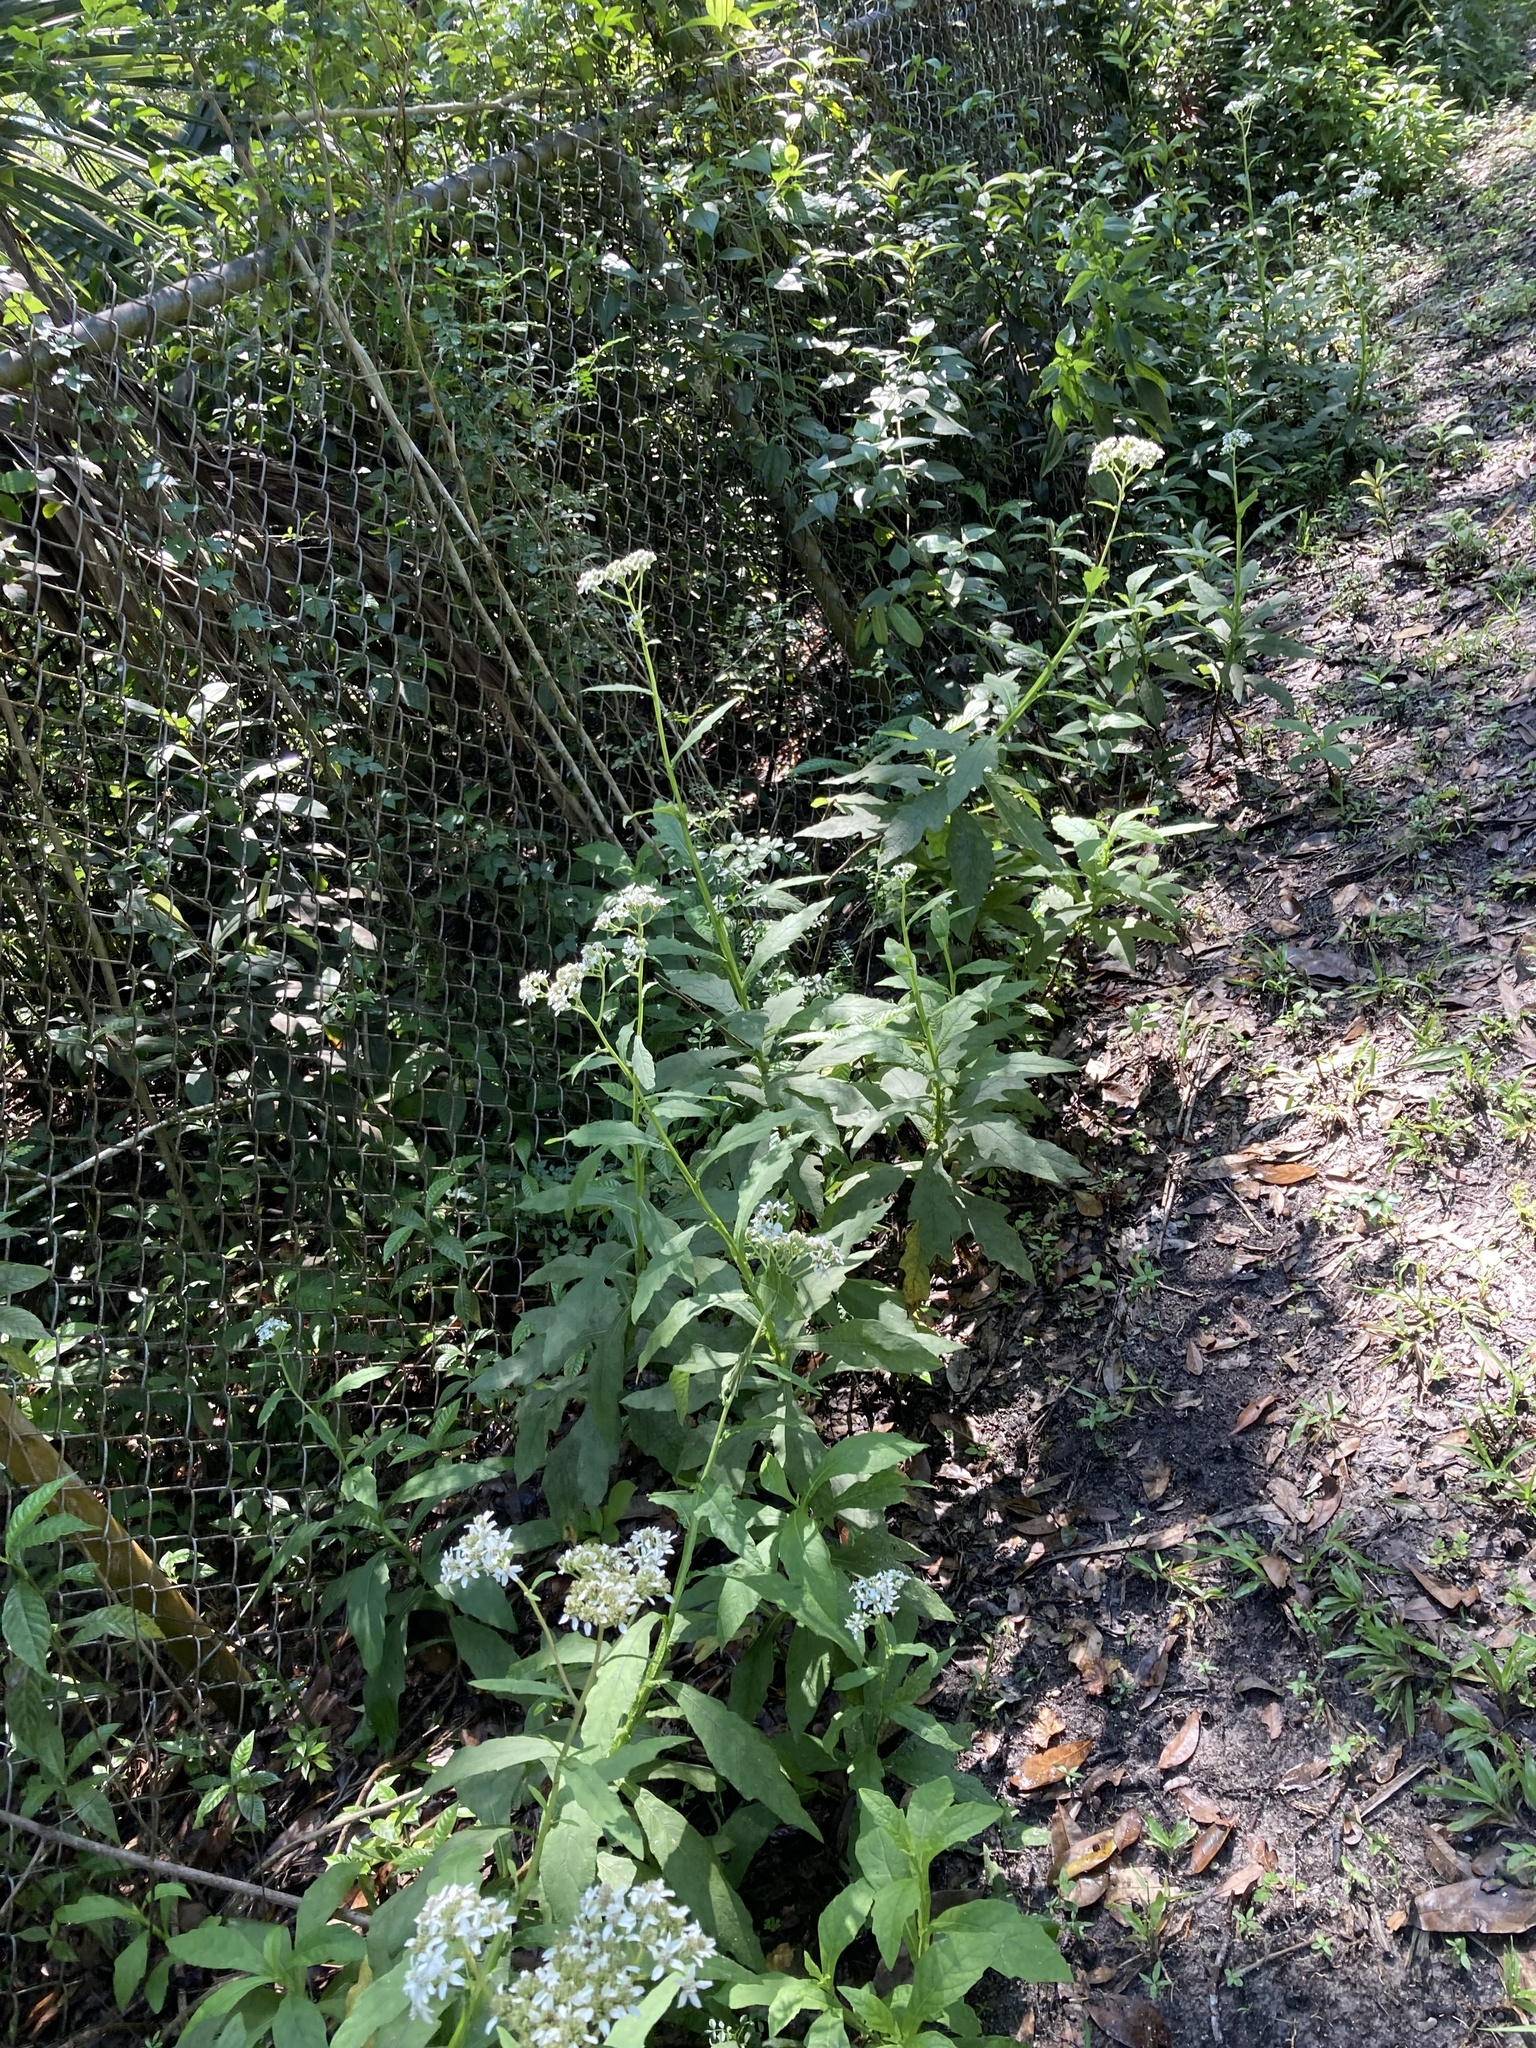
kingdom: Plantae
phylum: Tracheophyta
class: Magnoliopsida
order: Asterales
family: Asteraceae
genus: Verbesina
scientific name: Verbesina virginica
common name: Frostweed
